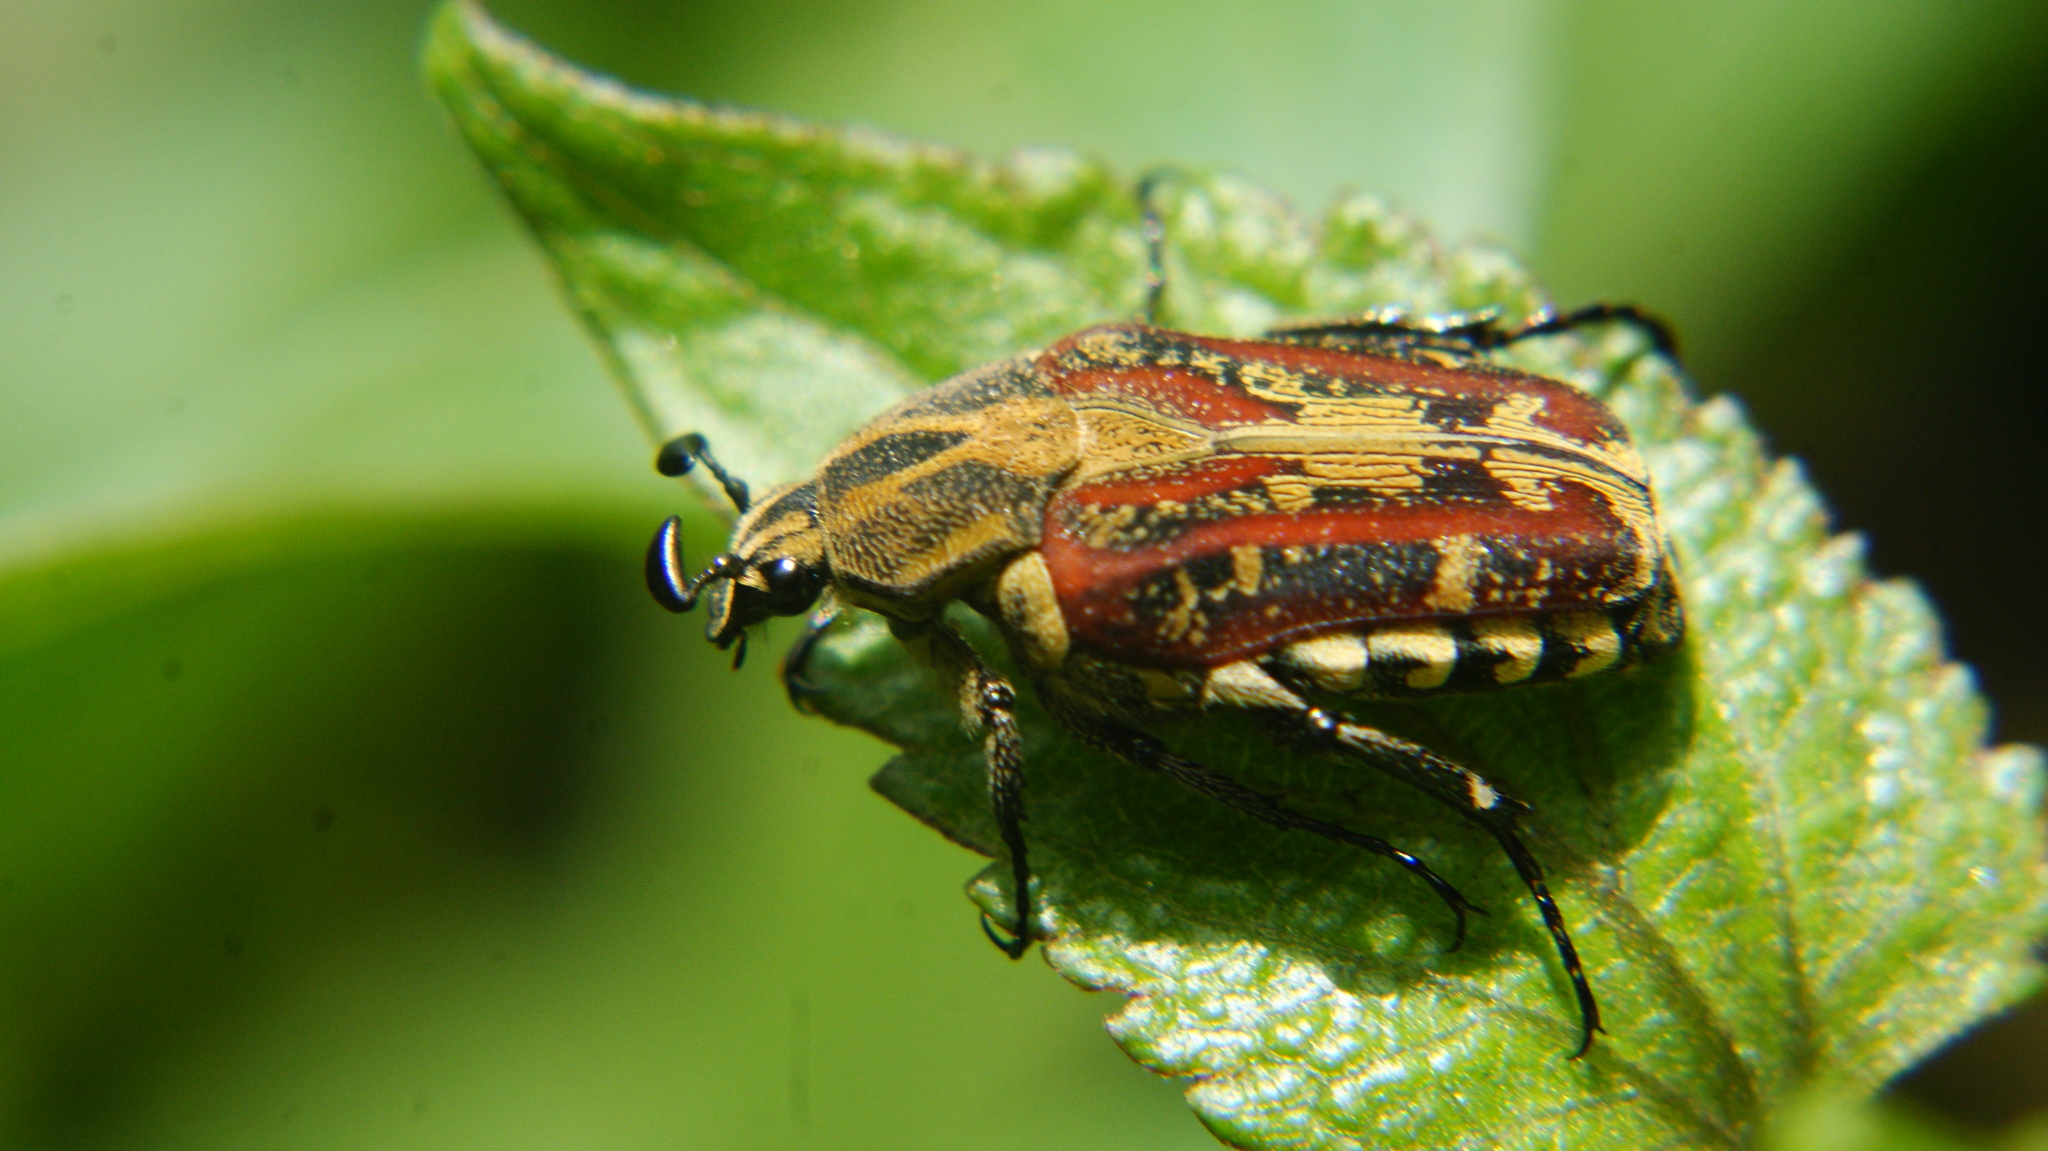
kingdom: Animalia
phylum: Arthropoda
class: Insecta
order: Coleoptera
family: Scarabaeidae
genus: Taeniodera
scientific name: Taeniodera bufo
